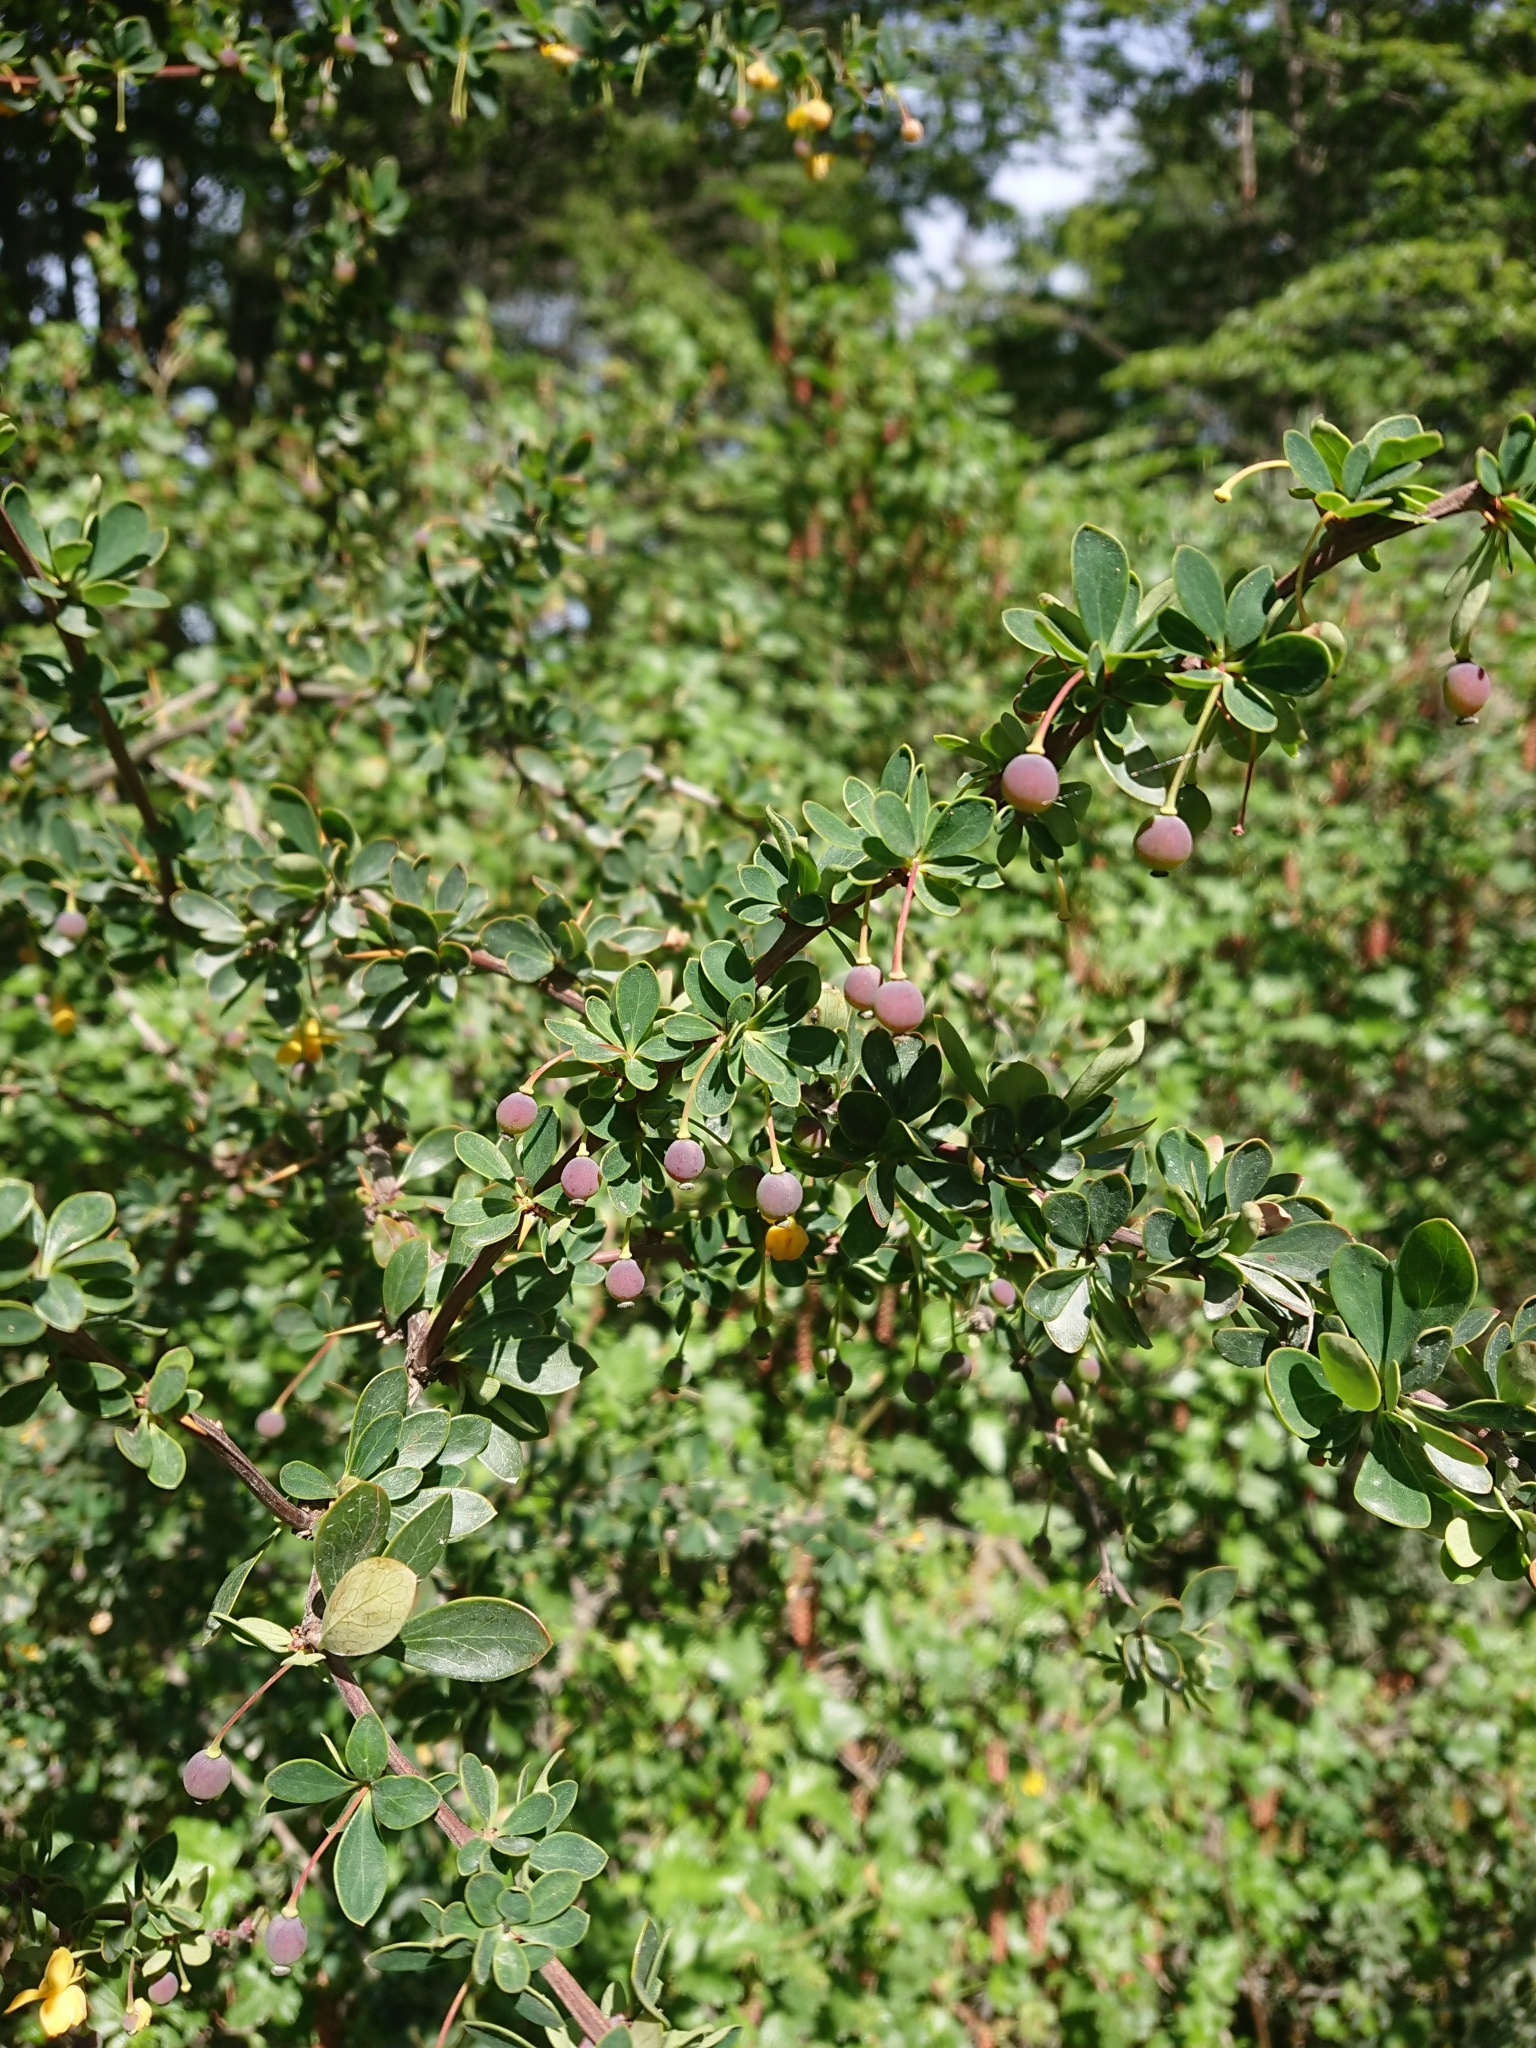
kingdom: Plantae
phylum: Tracheophyta
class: Magnoliopsida
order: Ranunculales
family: Berberidaceae
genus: Berberis
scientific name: Berberis microphylla
